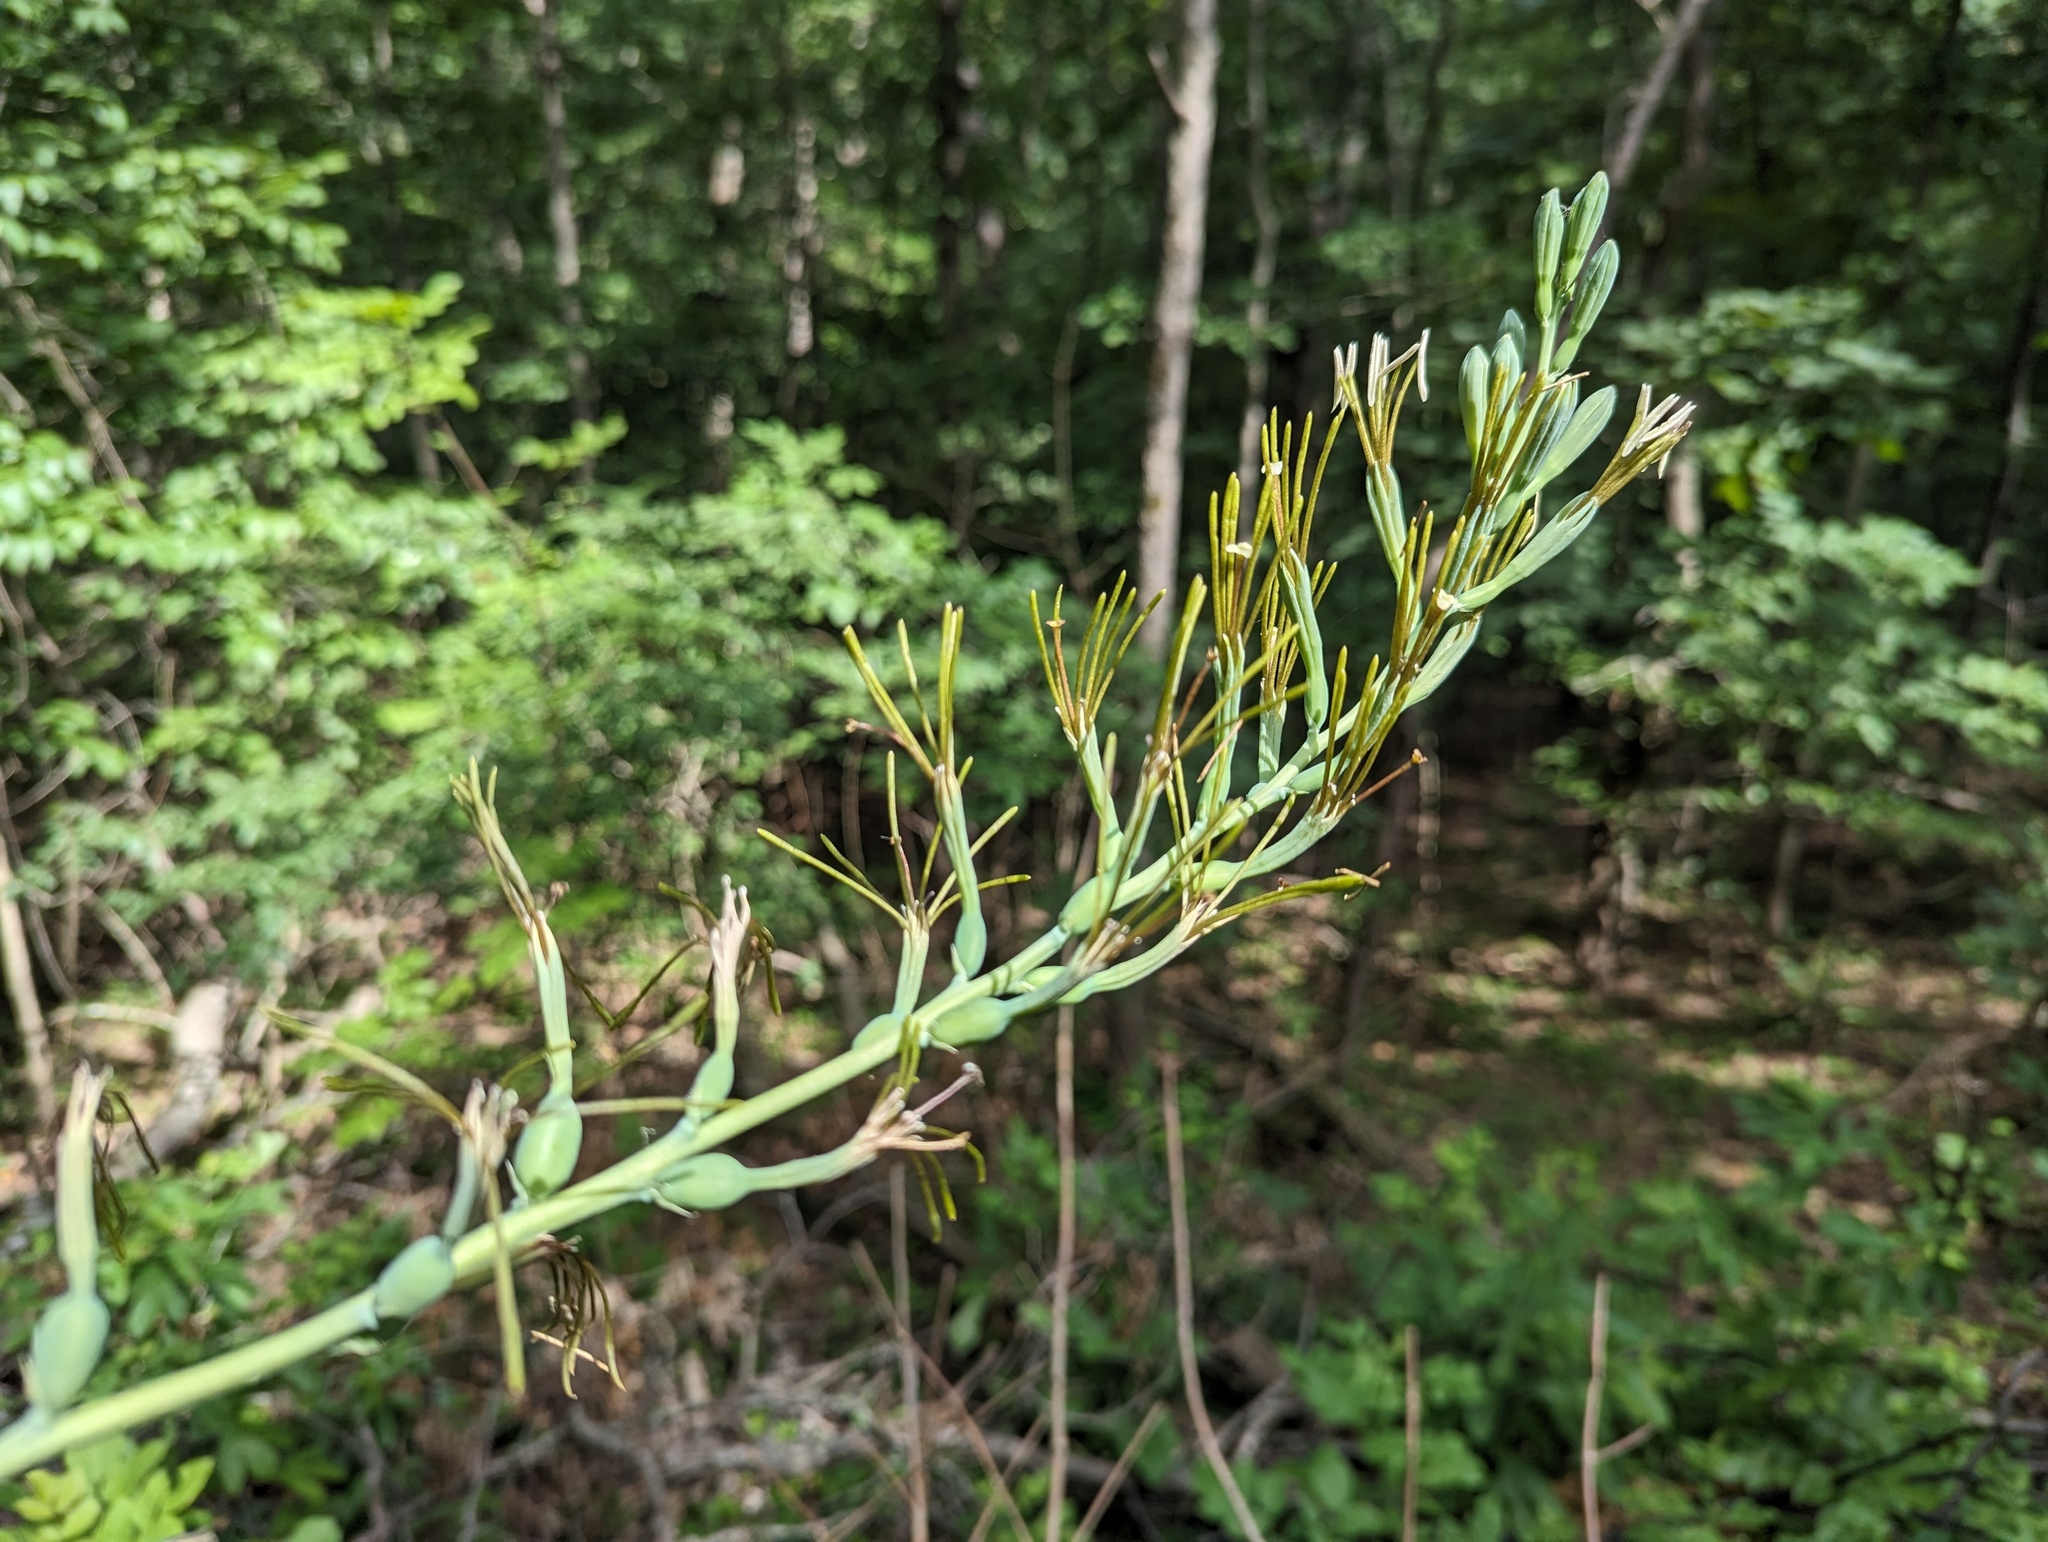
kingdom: Plantae
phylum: Tracheophyta
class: Liliopsida
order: Asparagales
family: Asparagaceae
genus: Agave
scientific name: Agave virginica
